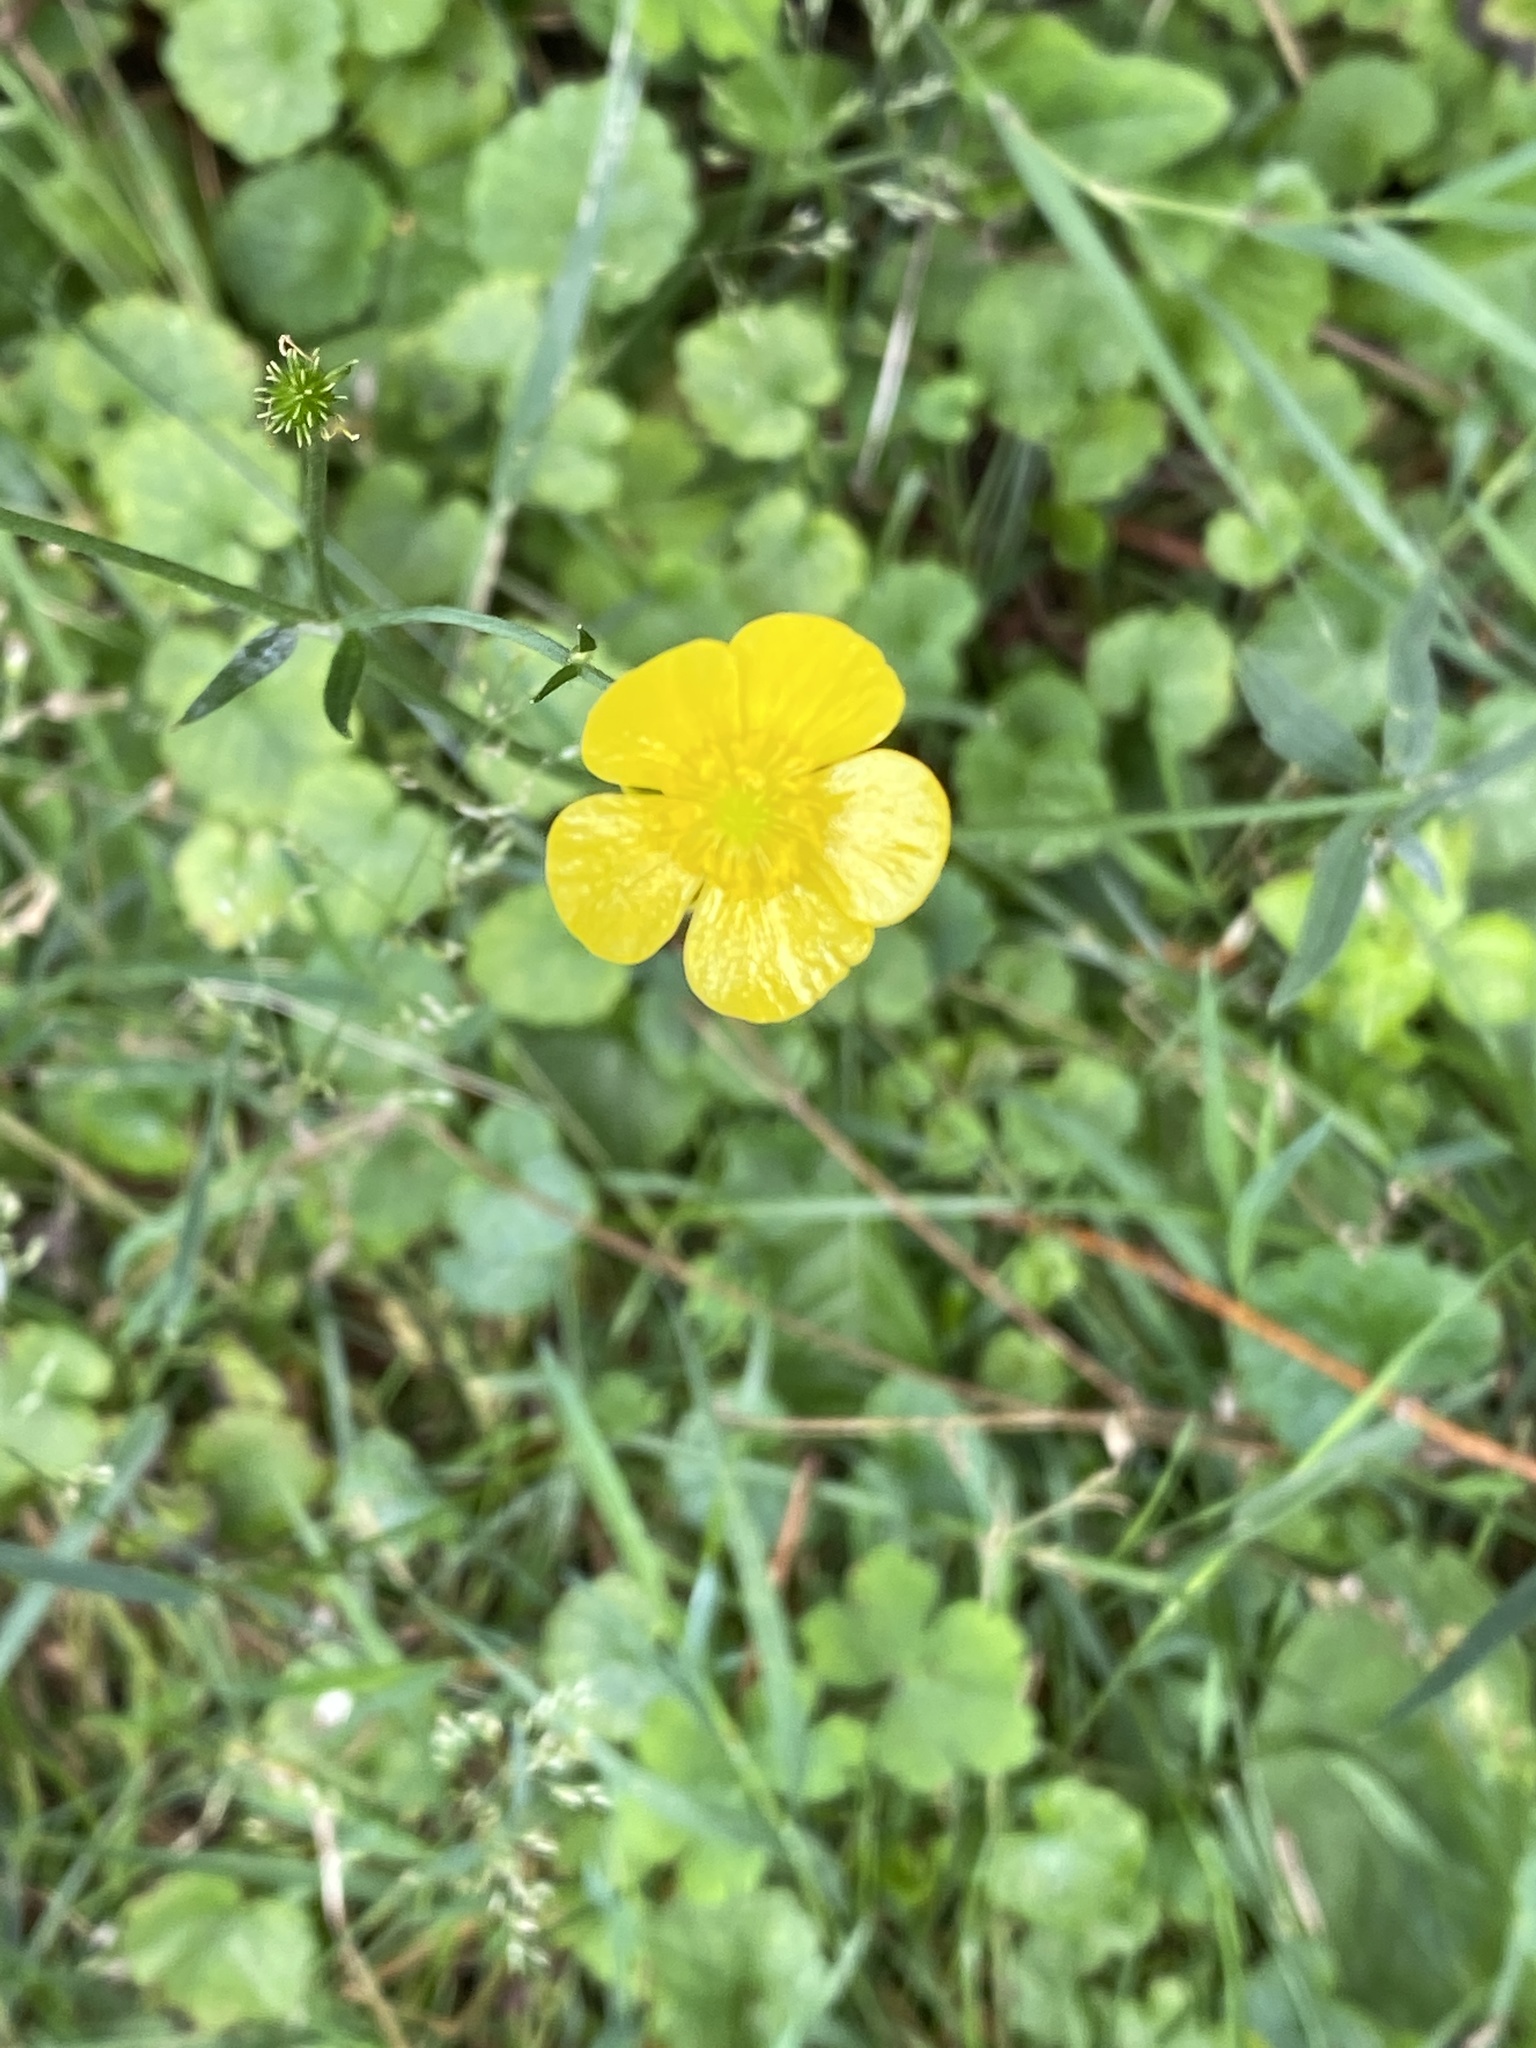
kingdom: Plantae
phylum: Tracheophyta
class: Magnoliopsida
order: Ranunculales
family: Ranunculaceae
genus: Ranunculus
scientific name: Ranunculus acris
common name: Meadow buttercup
